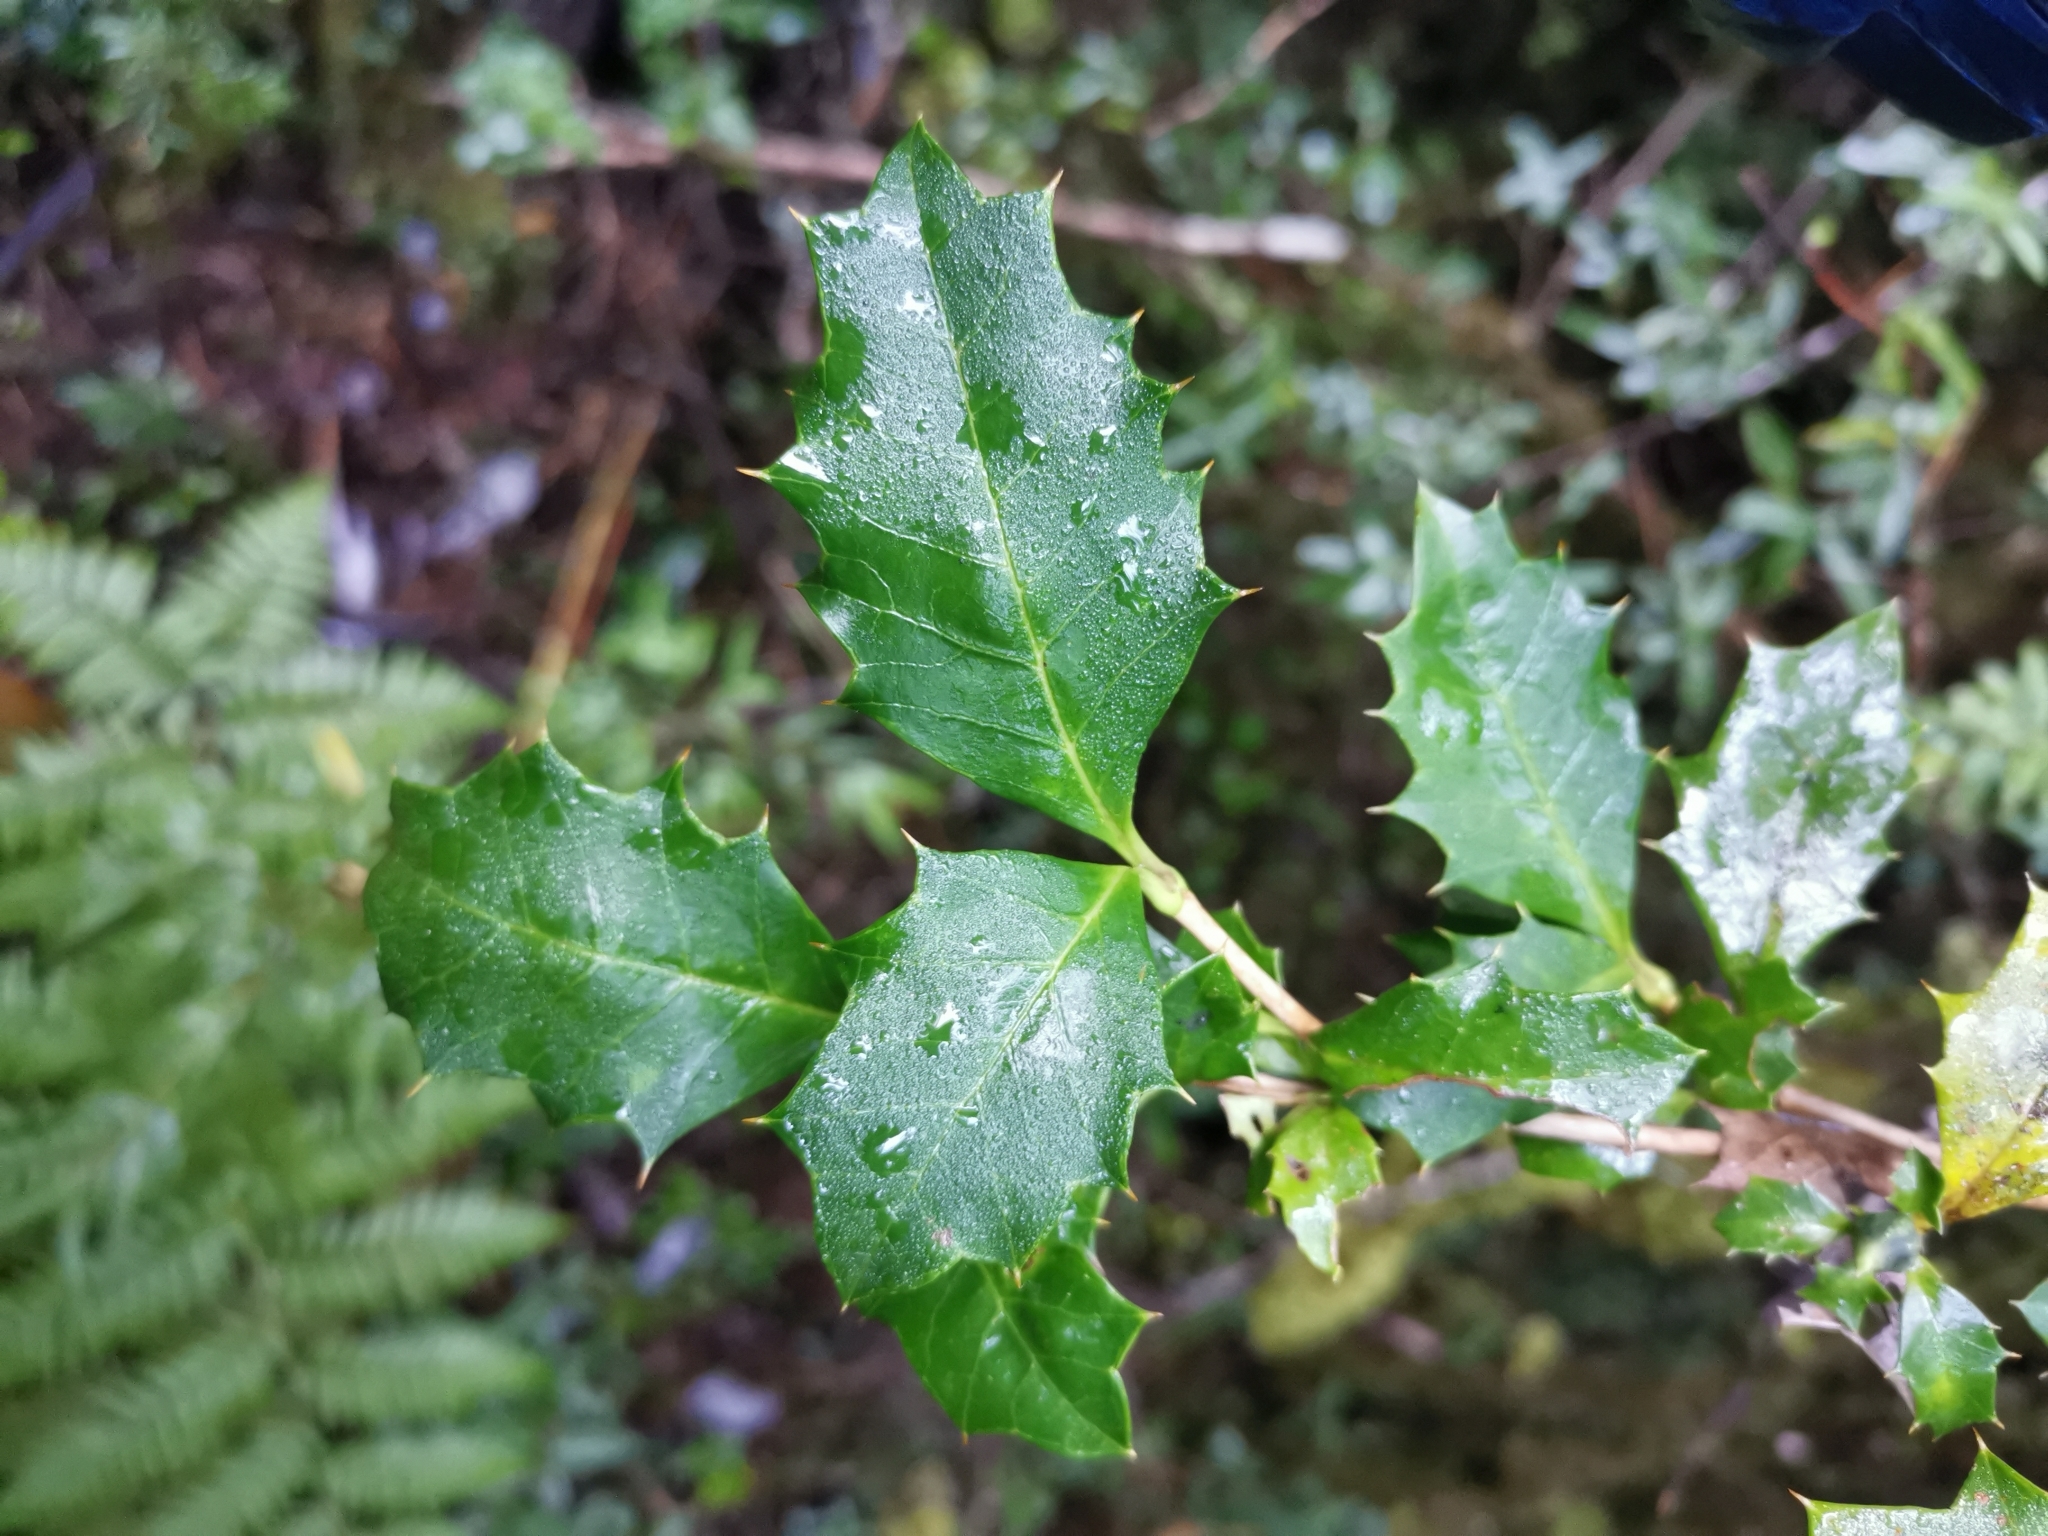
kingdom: Plantae
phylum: Tracheophyta
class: Magnoliopsida
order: Bruniales
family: Columelliaceae
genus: Desfontainia
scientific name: Desfontainia fulgens
